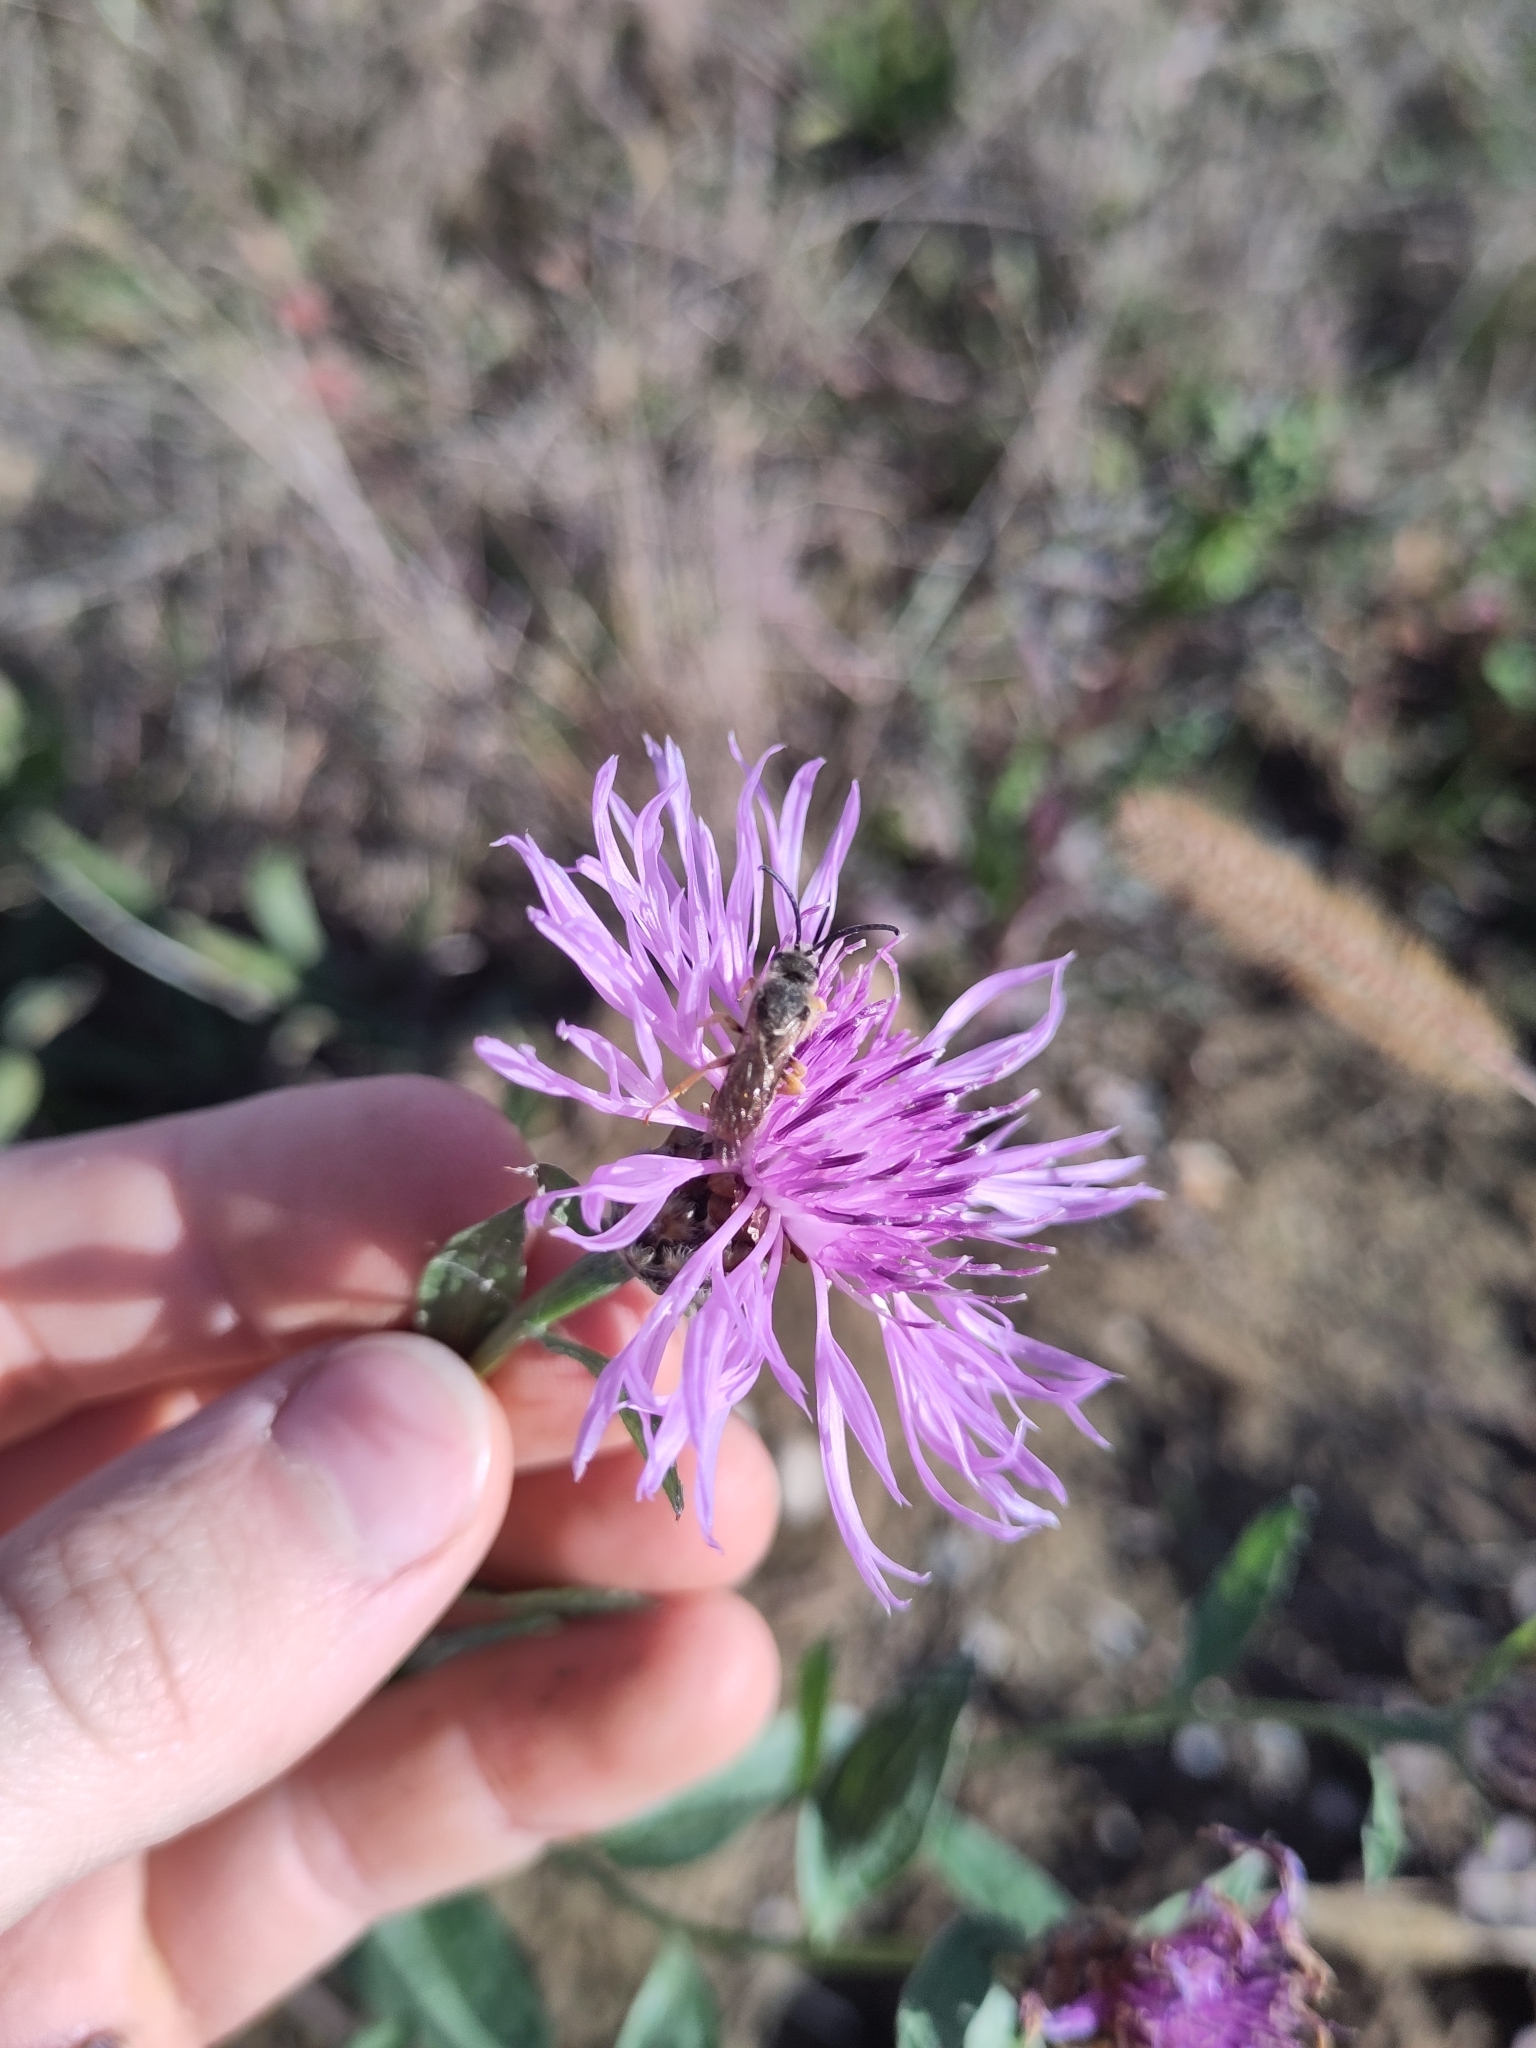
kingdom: Plantae
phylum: Tracheophyta
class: Magnoliopsida
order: Asterales
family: Asteraceae
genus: Centaurea
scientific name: Centaurea jacea
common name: Brown knapweed
